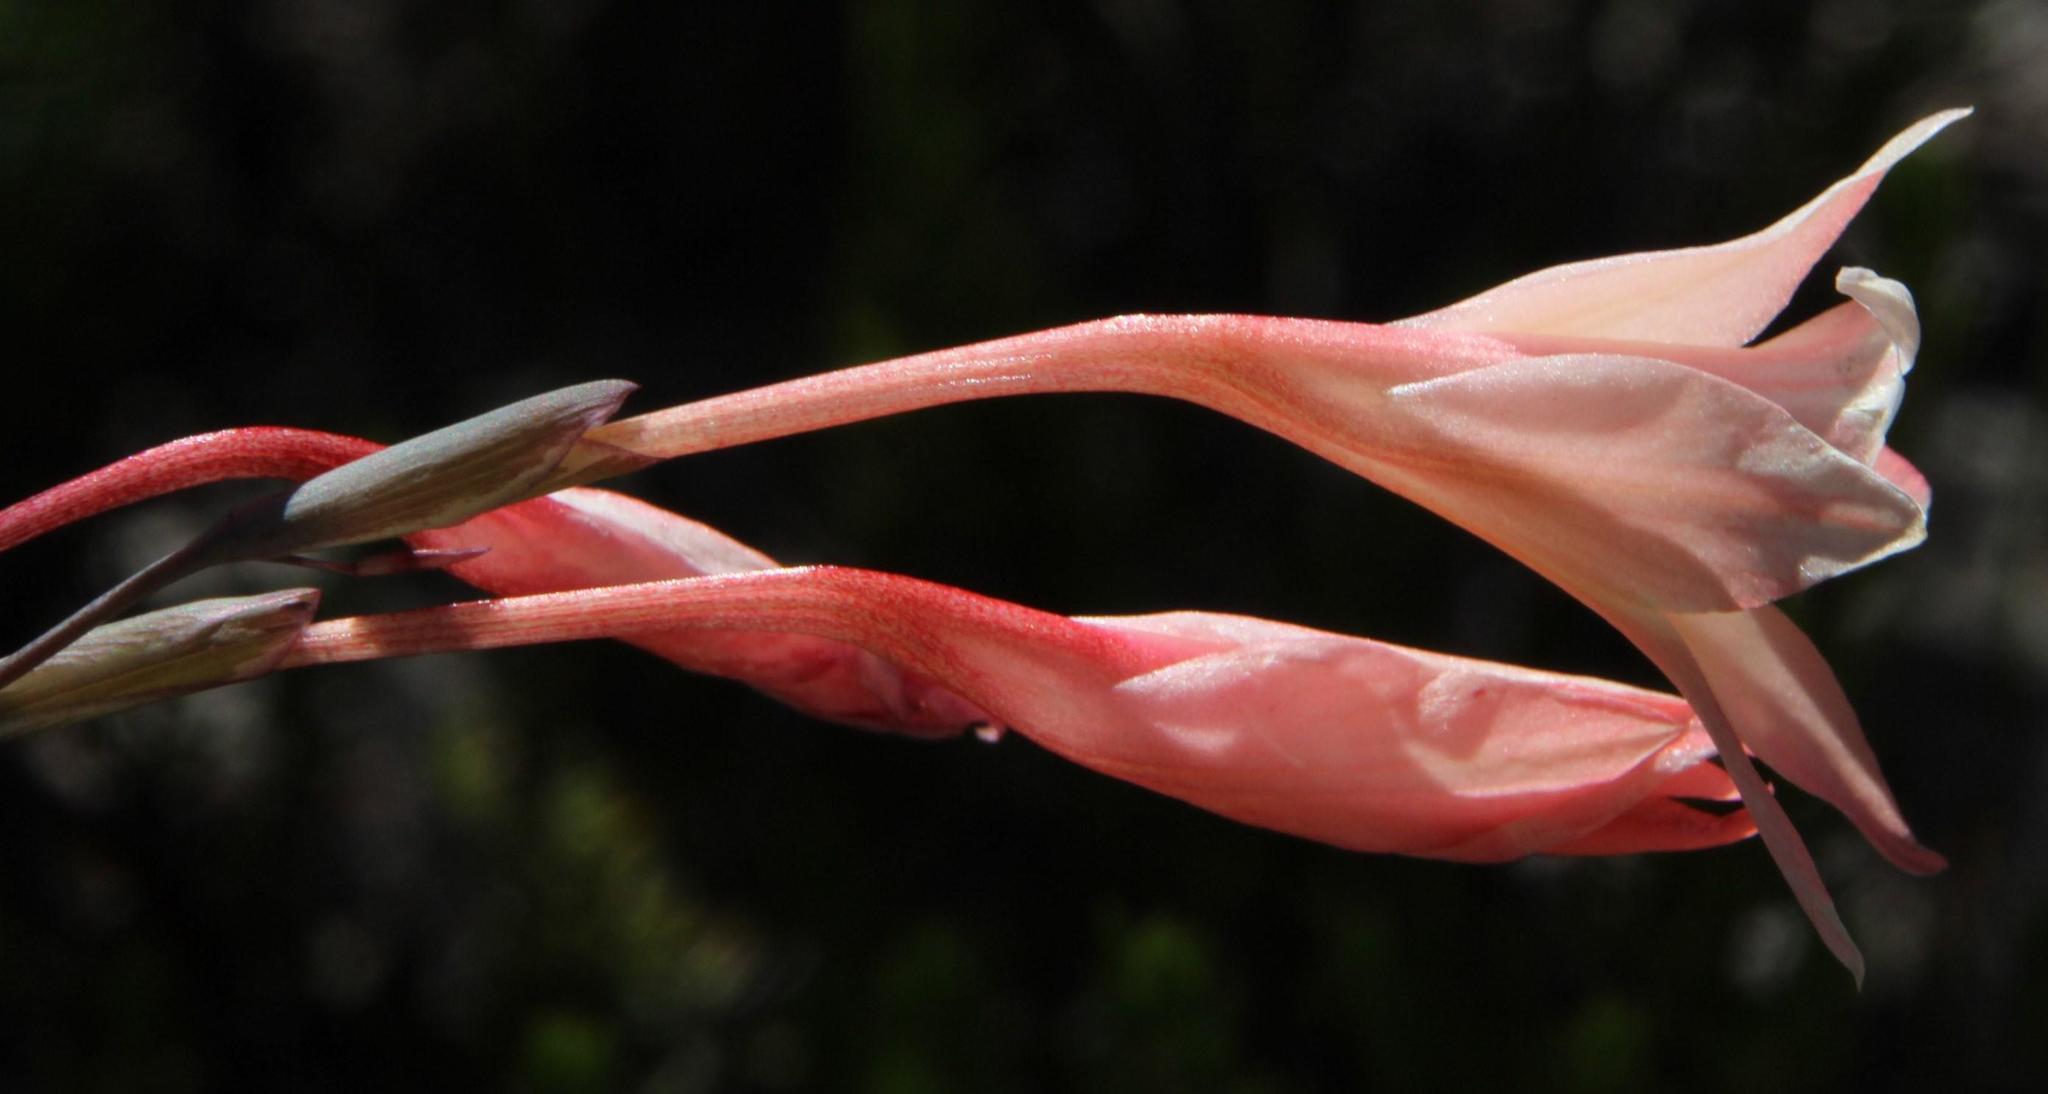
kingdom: Plantae
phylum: Tracheophyta
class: Liliopsida
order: Asparagales
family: Iridaceae
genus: Gladiolus
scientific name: Gladiolus monticola
